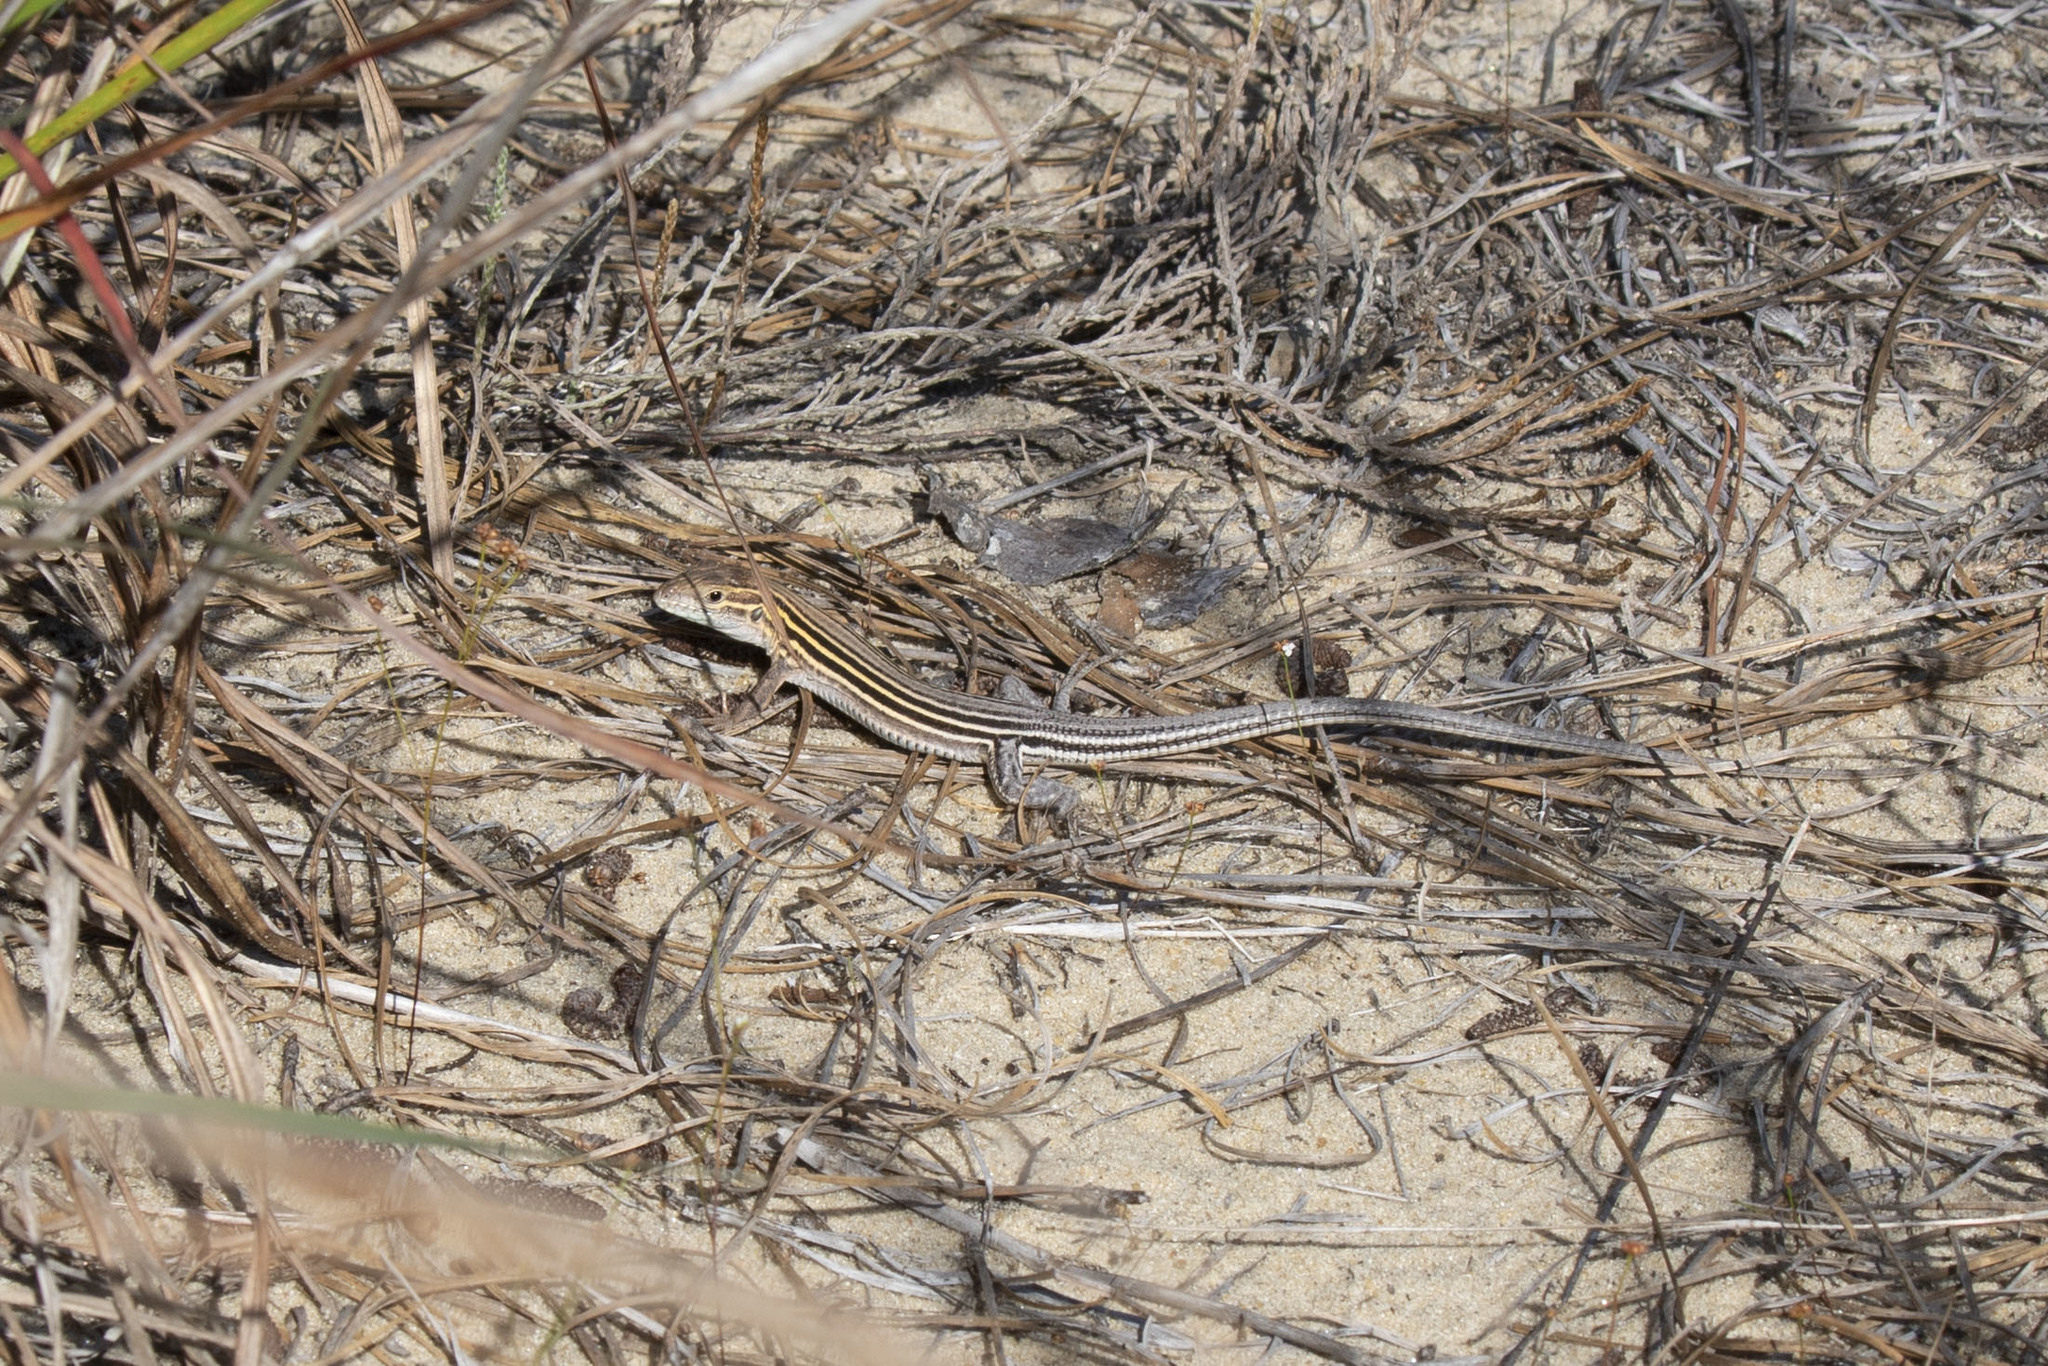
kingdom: Animalia
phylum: Chordata
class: Squamata
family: Teiidae
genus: Aspidoscelis
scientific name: Aspidoscelis sexlineatus
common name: Six-lined racerunner
